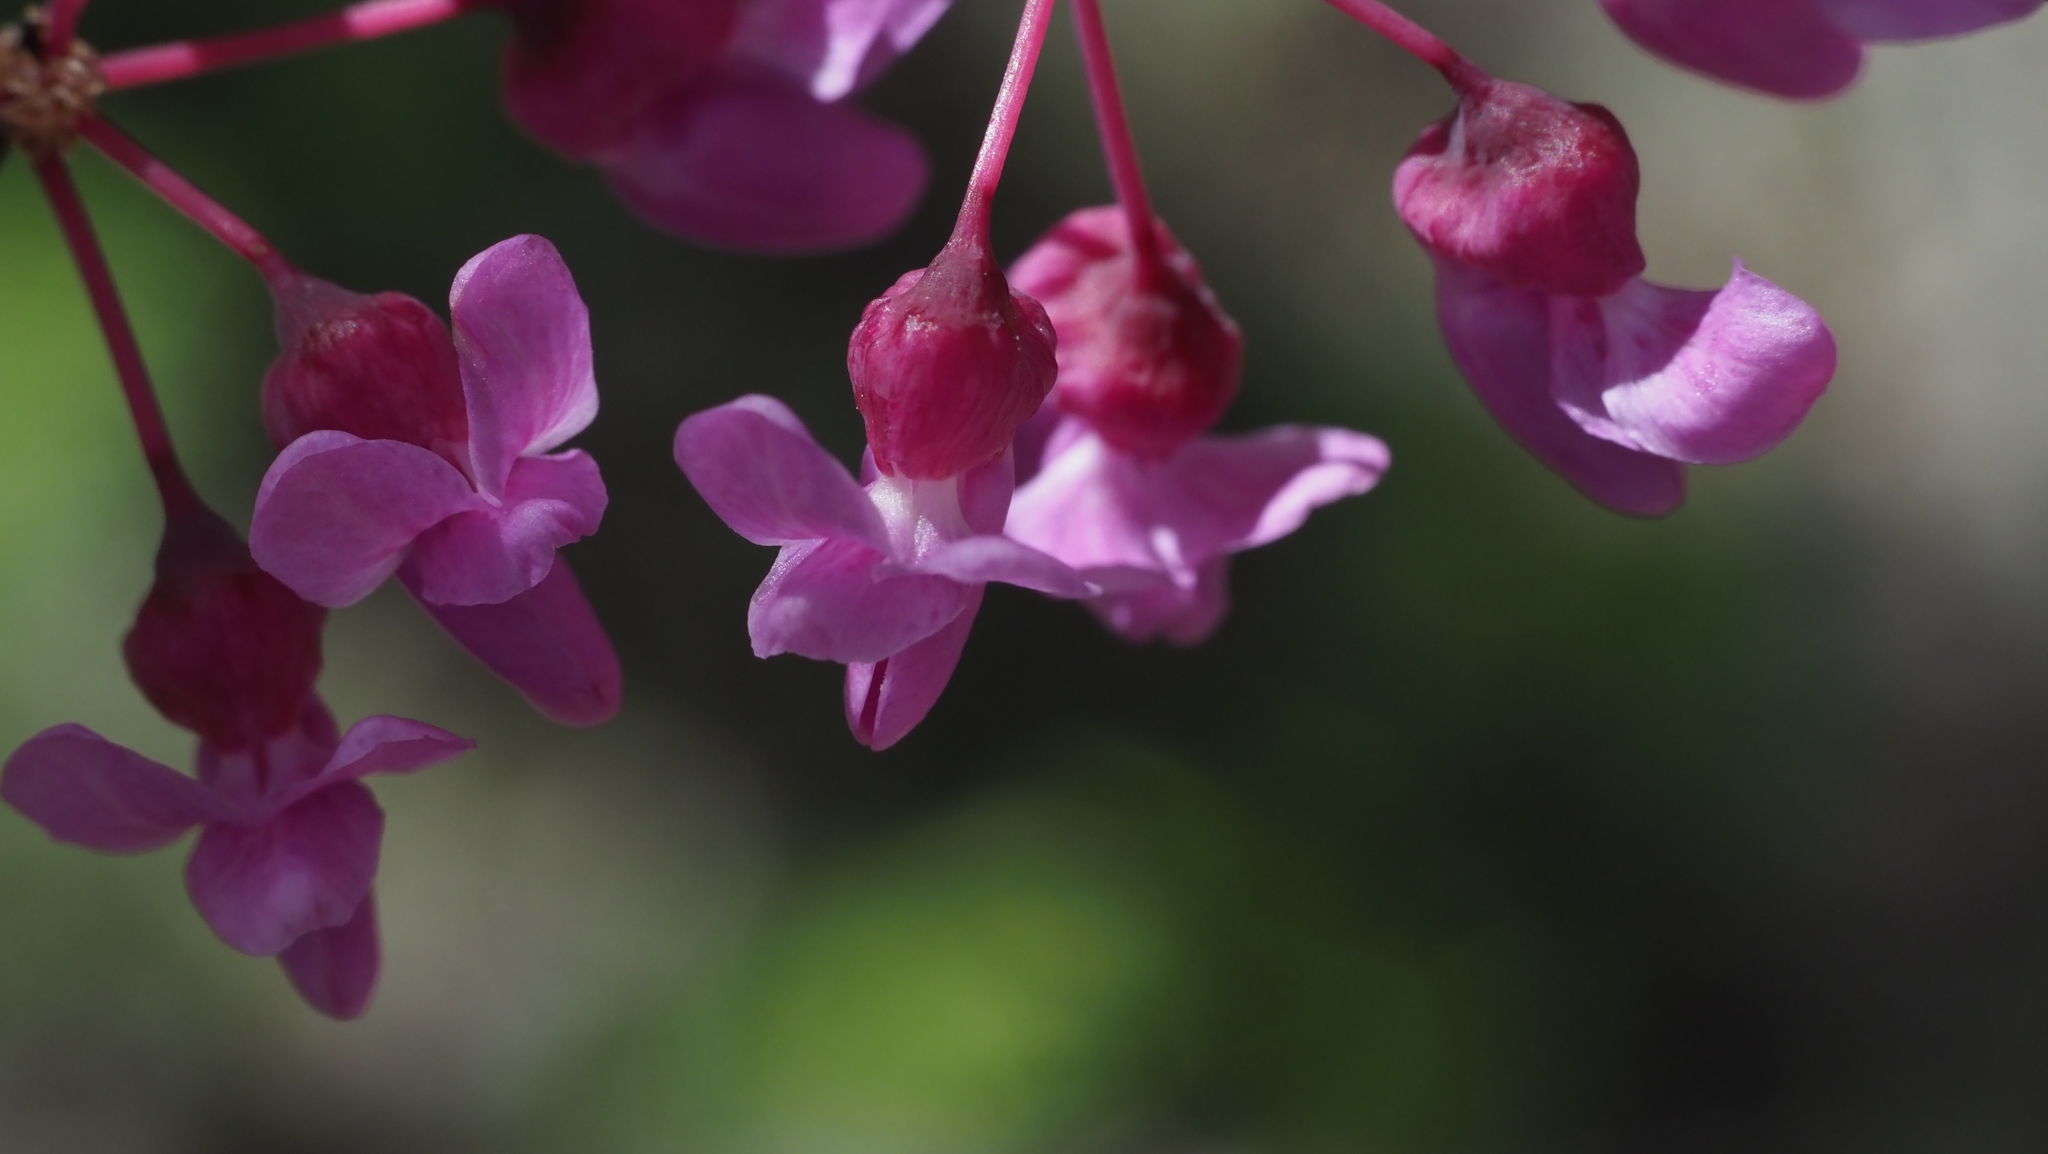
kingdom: Plantae
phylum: Tracheophyta
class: Magnoliopsida
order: Fabales
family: Fabaceae
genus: Cercis
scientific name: Cercis canadensis
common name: Eastern redbud
